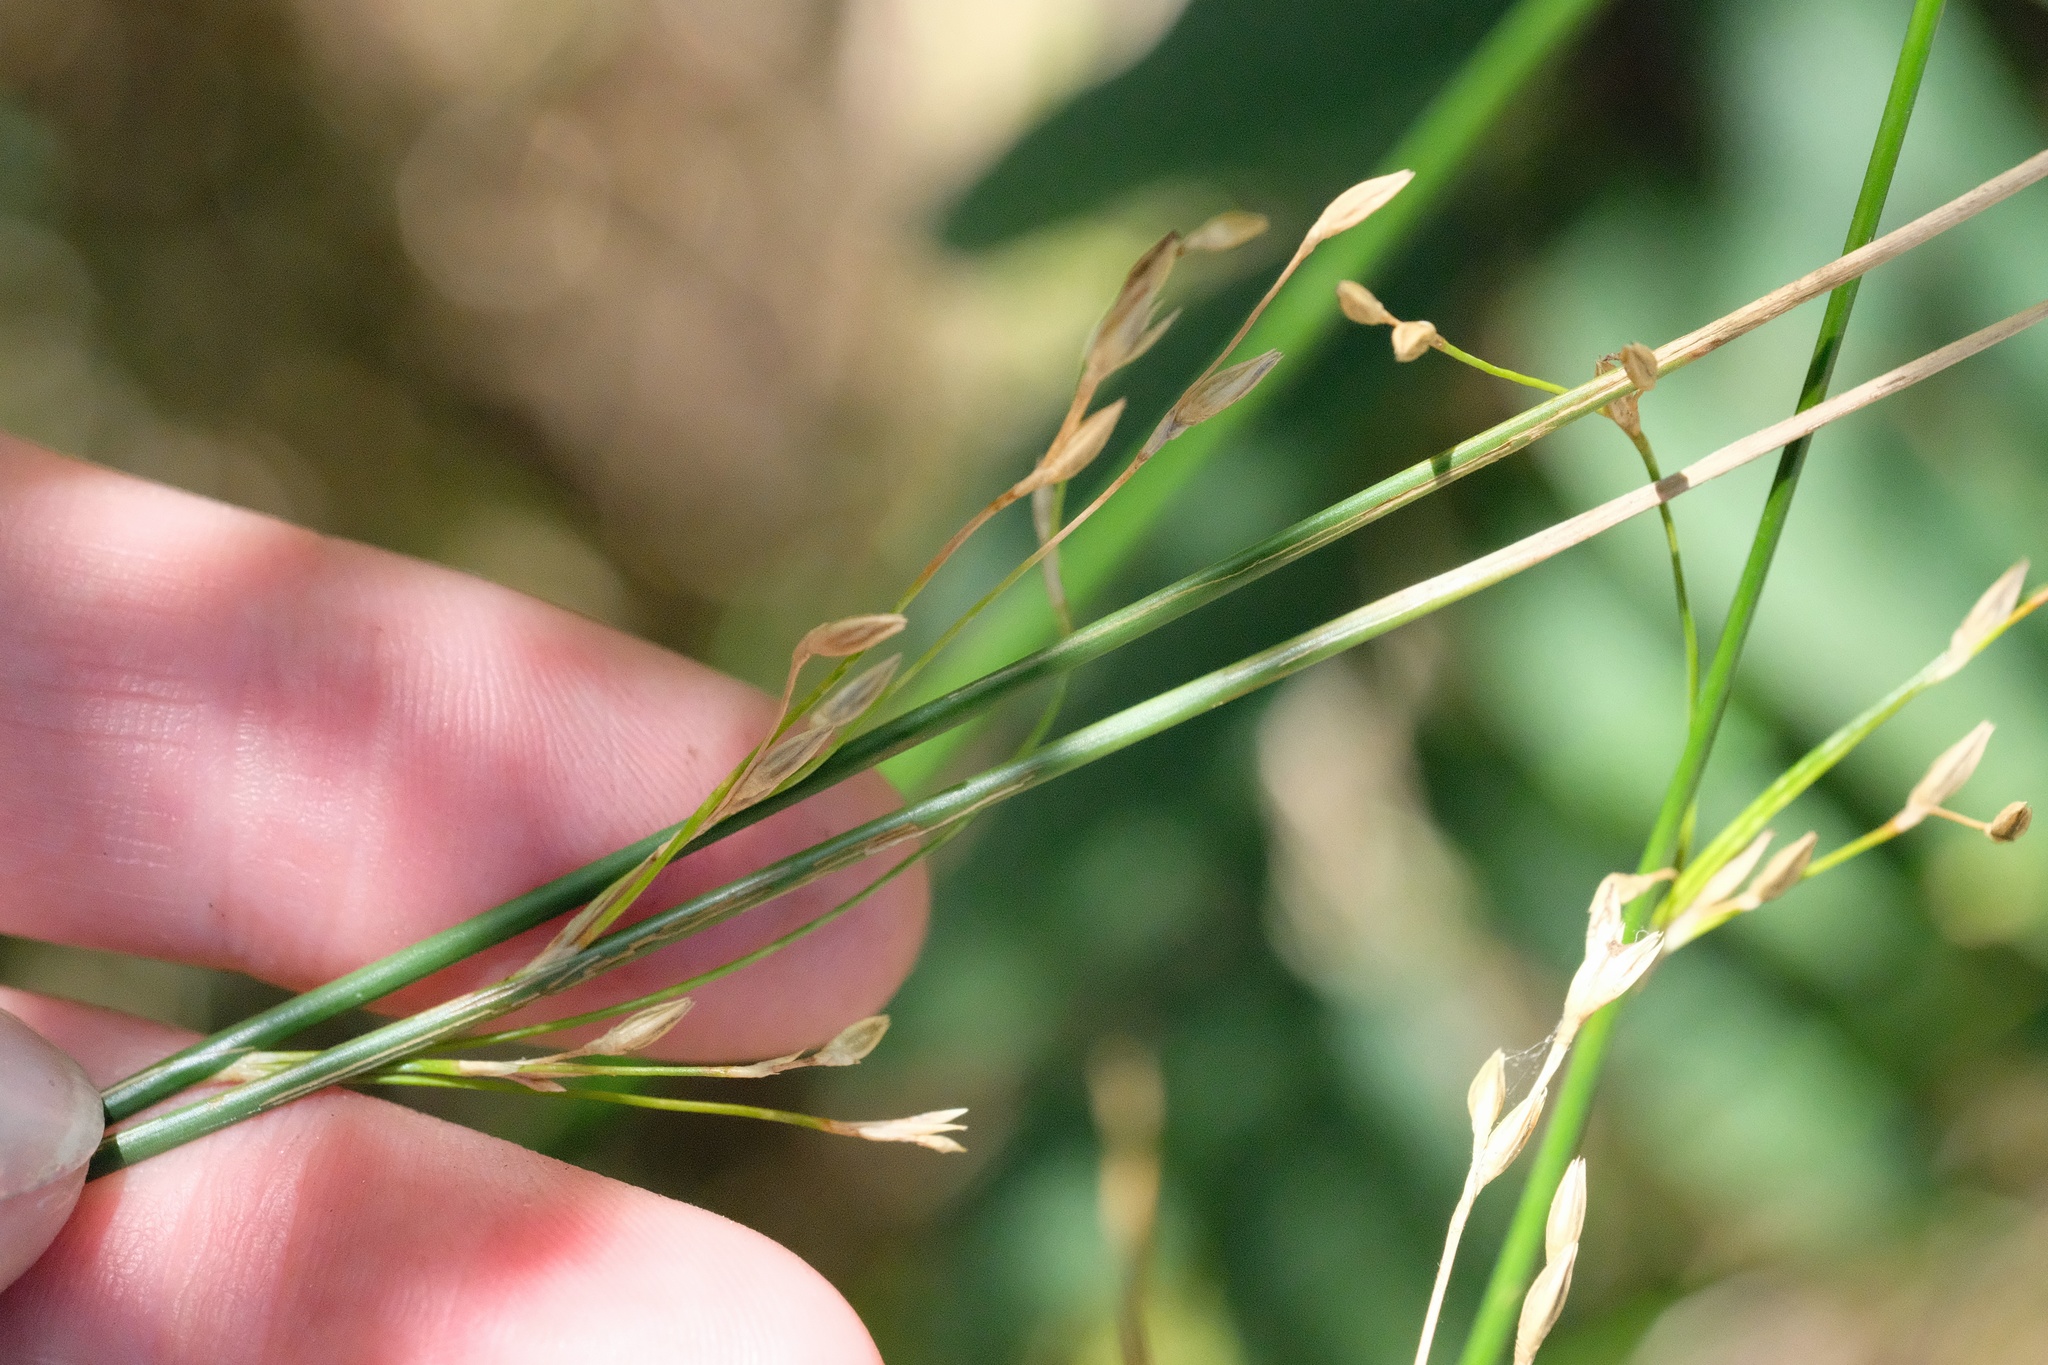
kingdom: Plantae
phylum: Tracheophyta
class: Liliopsida
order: Poales
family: Juncaceae
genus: Juncus
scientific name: Juncus balticus
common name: Baltic rush
